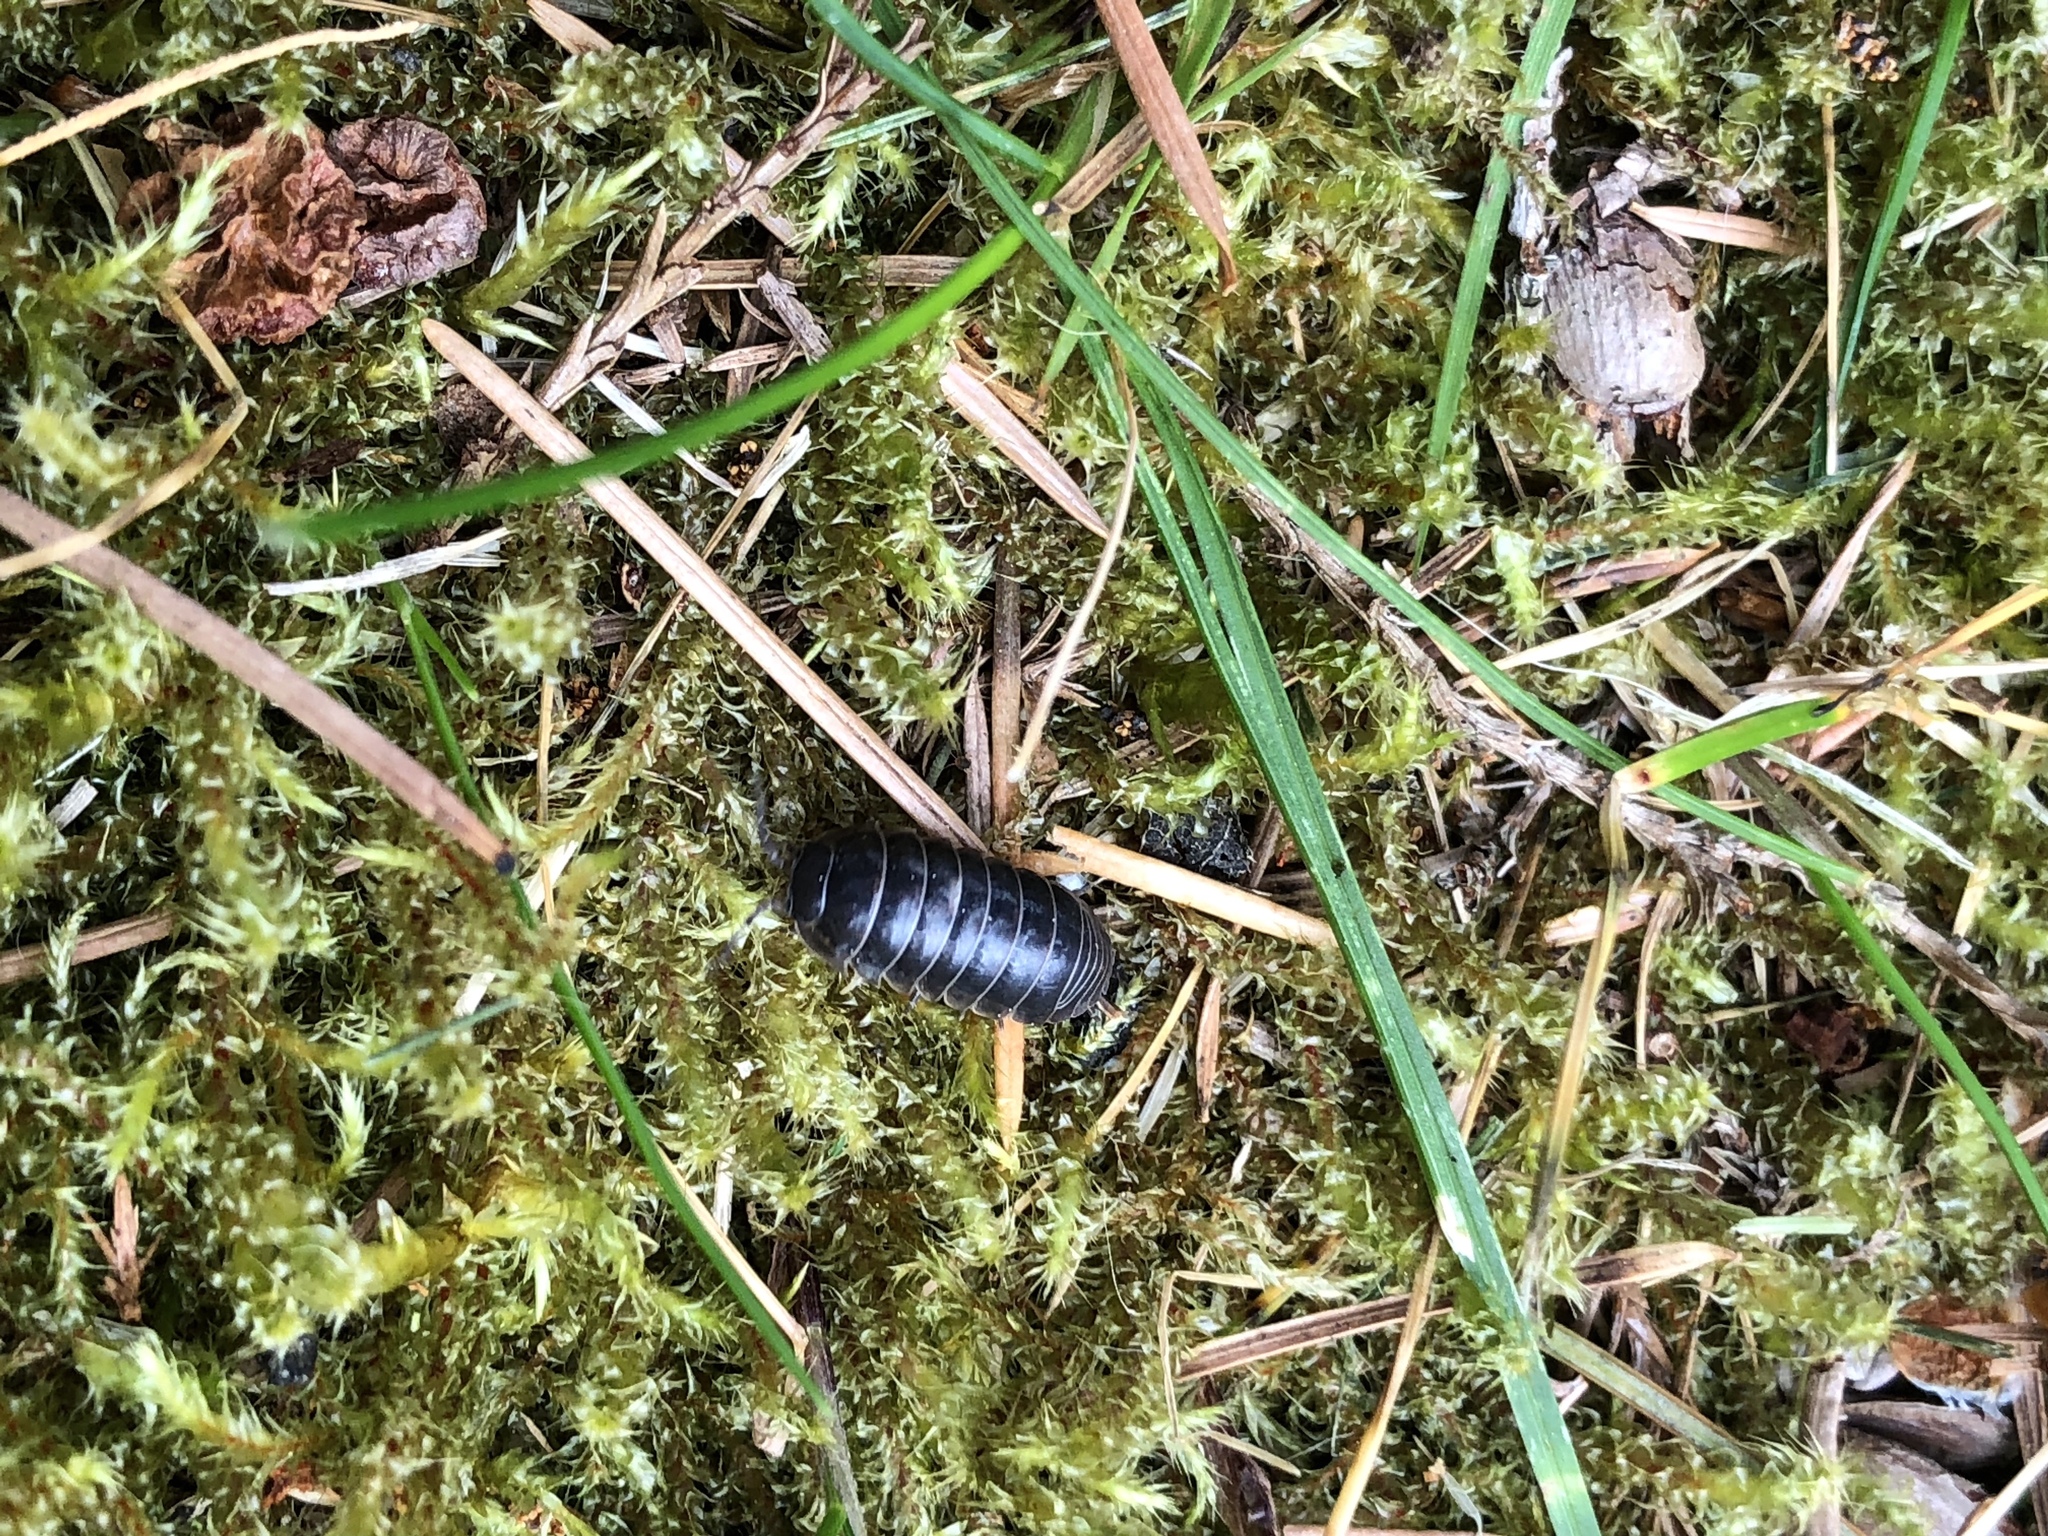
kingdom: Animalia
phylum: Arthropoda
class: Malacostraca
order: Isopoda
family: Armadillidiidae
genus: Armadillidium
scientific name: Armadillidium vulgare
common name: Common pill woodlouse
